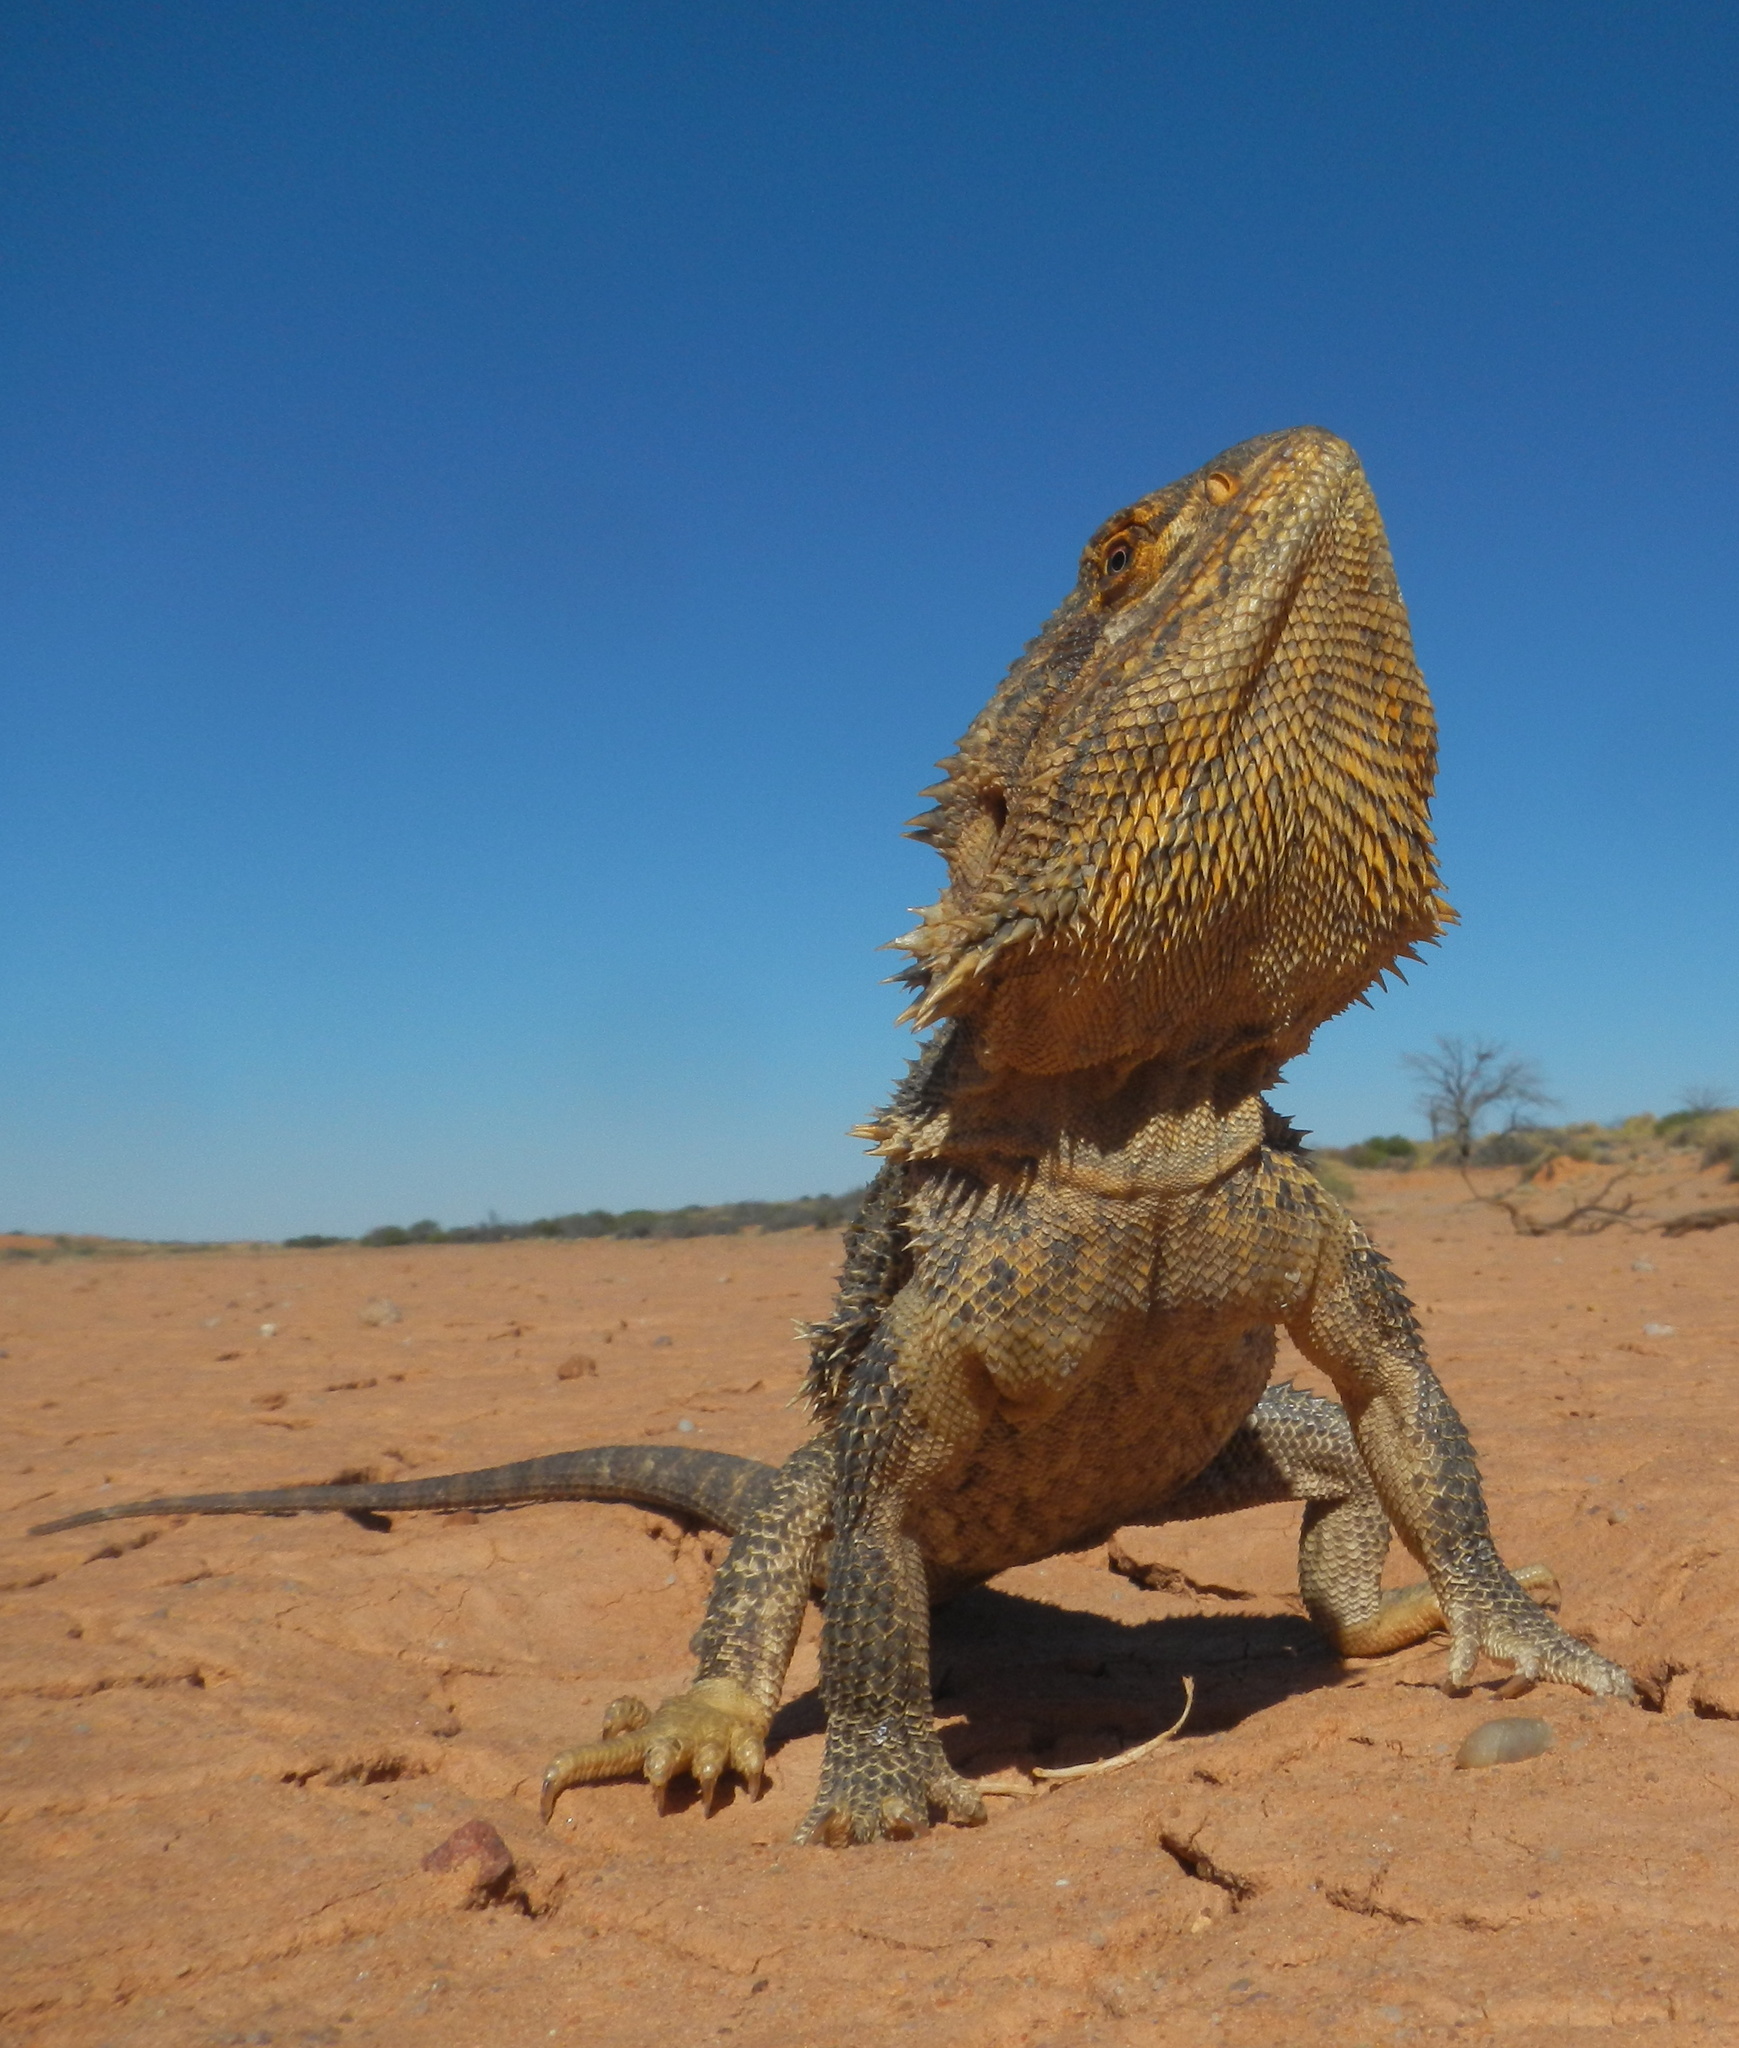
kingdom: Animalia
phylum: Chordata
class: Squamata
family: Agamidae
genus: Pogona
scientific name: Pogona vitticeps
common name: Central bearded dragon
